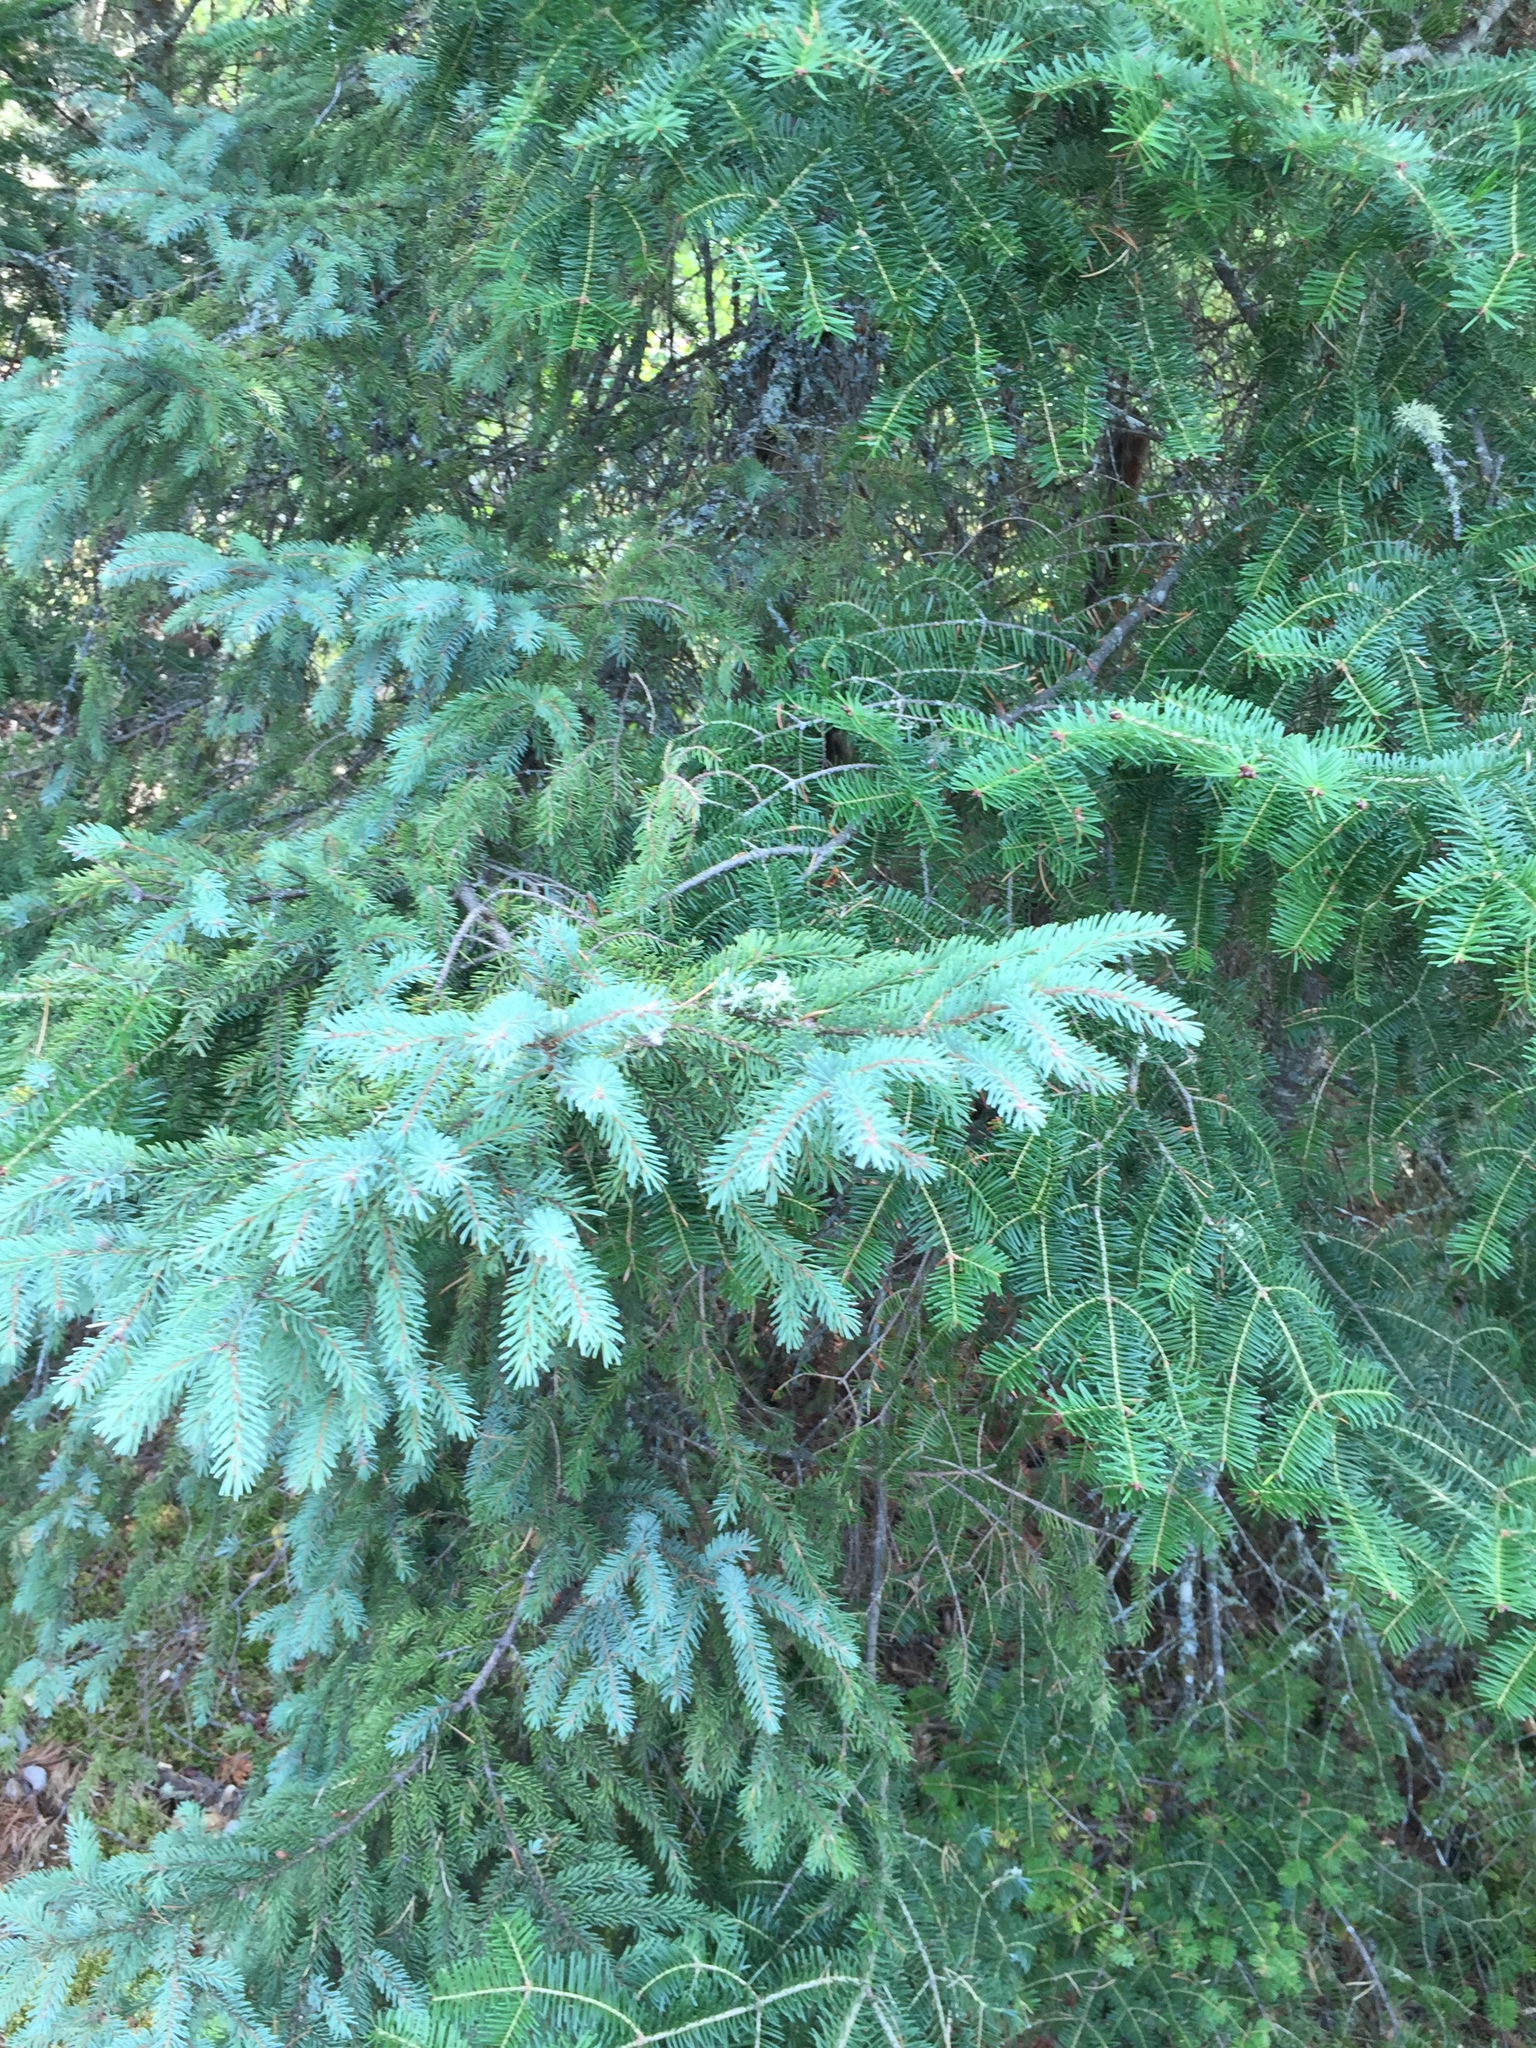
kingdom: Plantae
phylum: Tracheophyta
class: Pinopsida
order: Pinales
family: Pinaceae
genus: Picea
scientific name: Picea glauca
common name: White spruce
